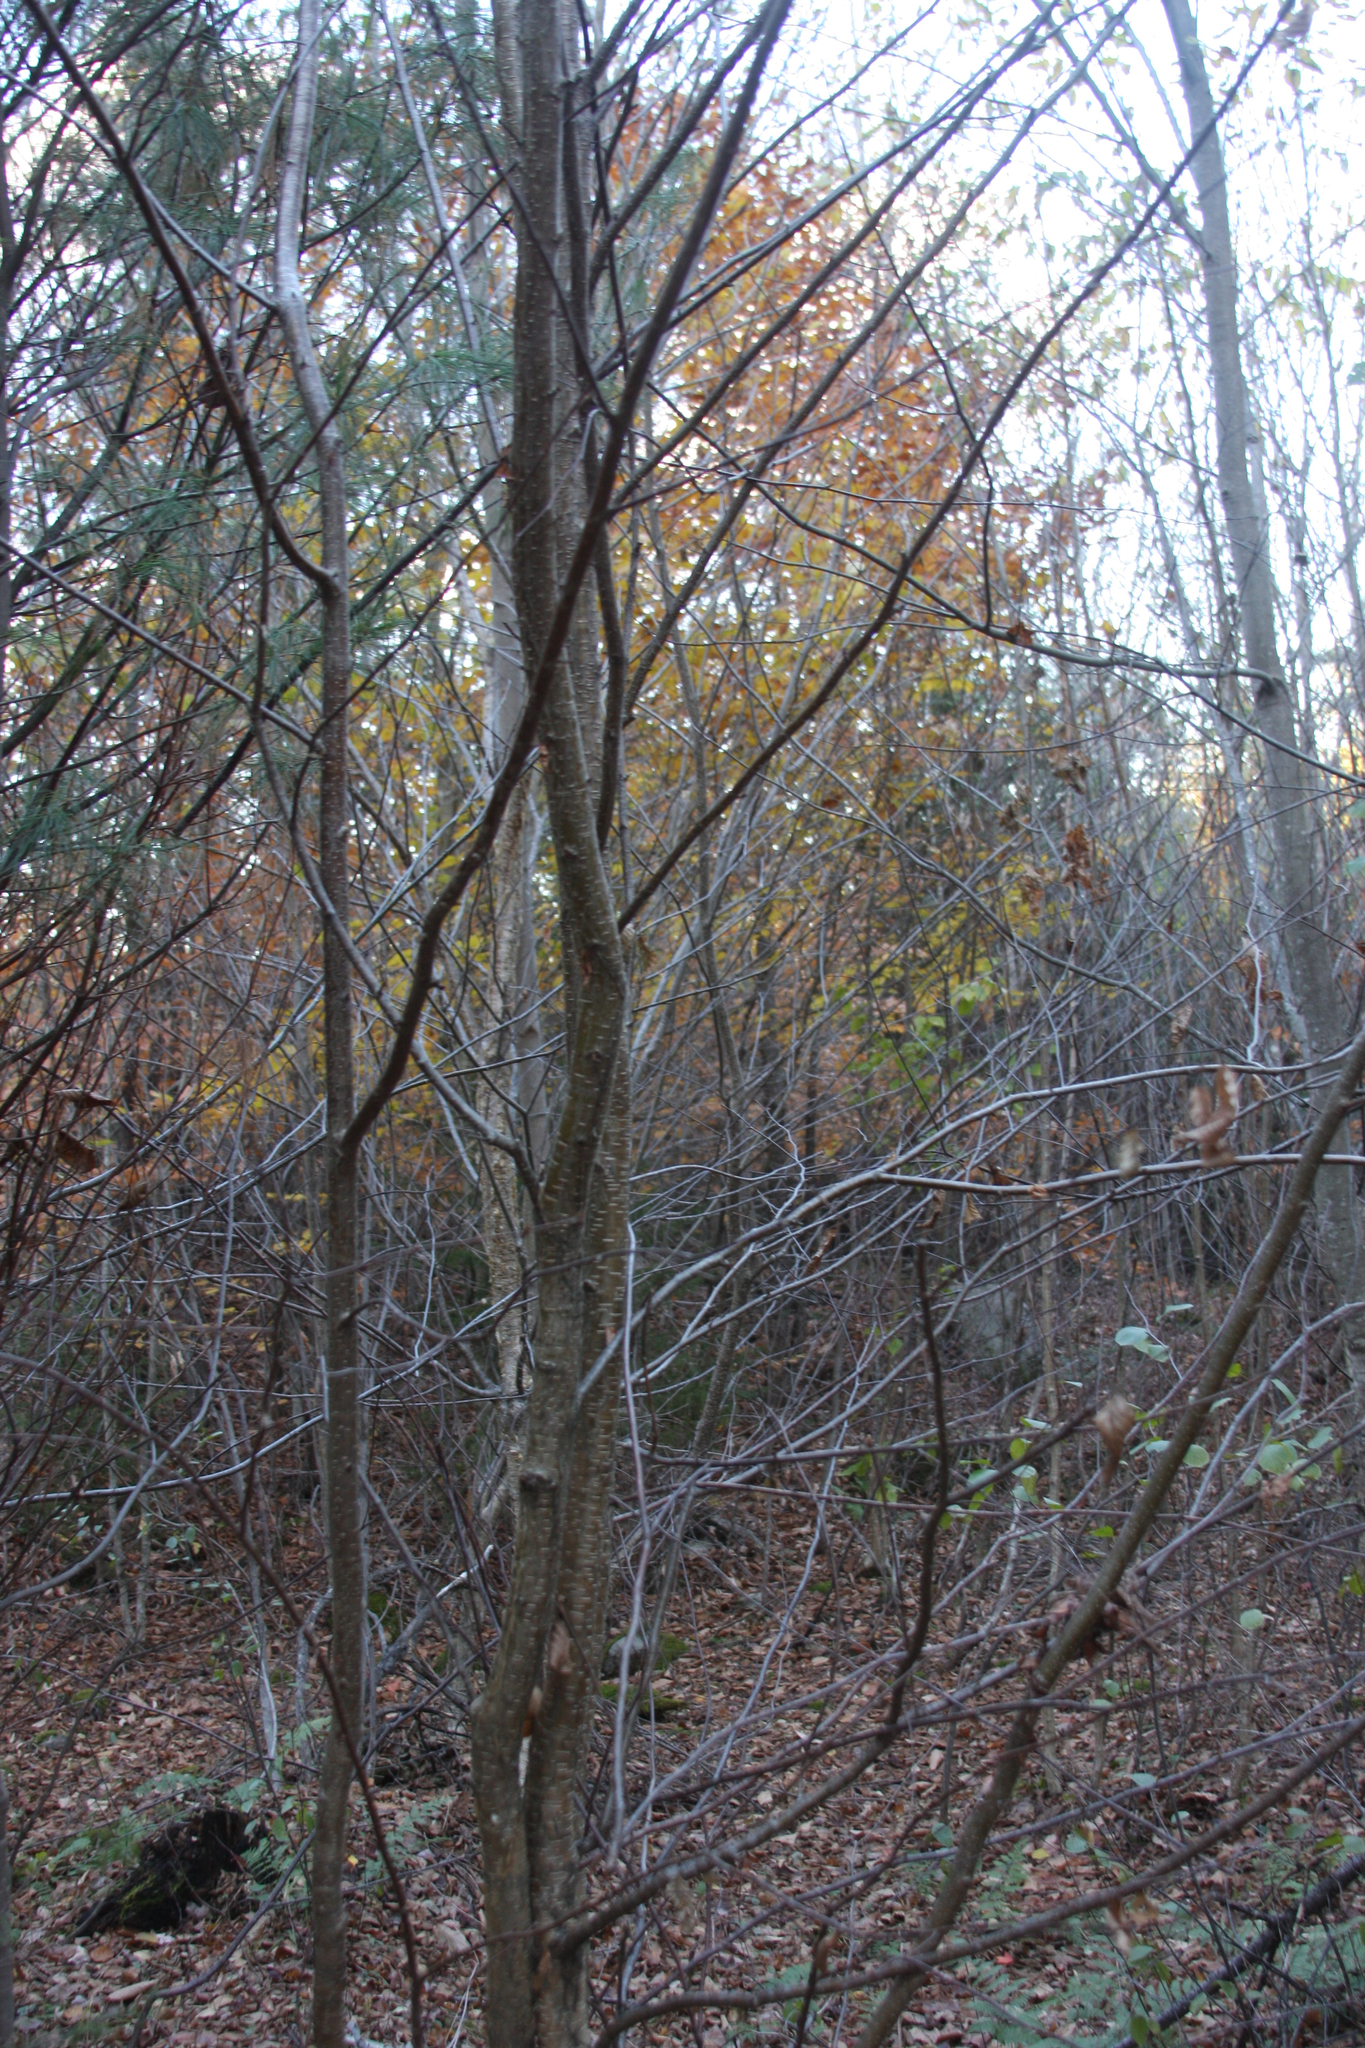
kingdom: Plantae
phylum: Tracheophyta
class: Magnoliopsida
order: Fagales
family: Betulaceae
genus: Betula
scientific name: Betula alleghaniensis
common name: Yellow birch
